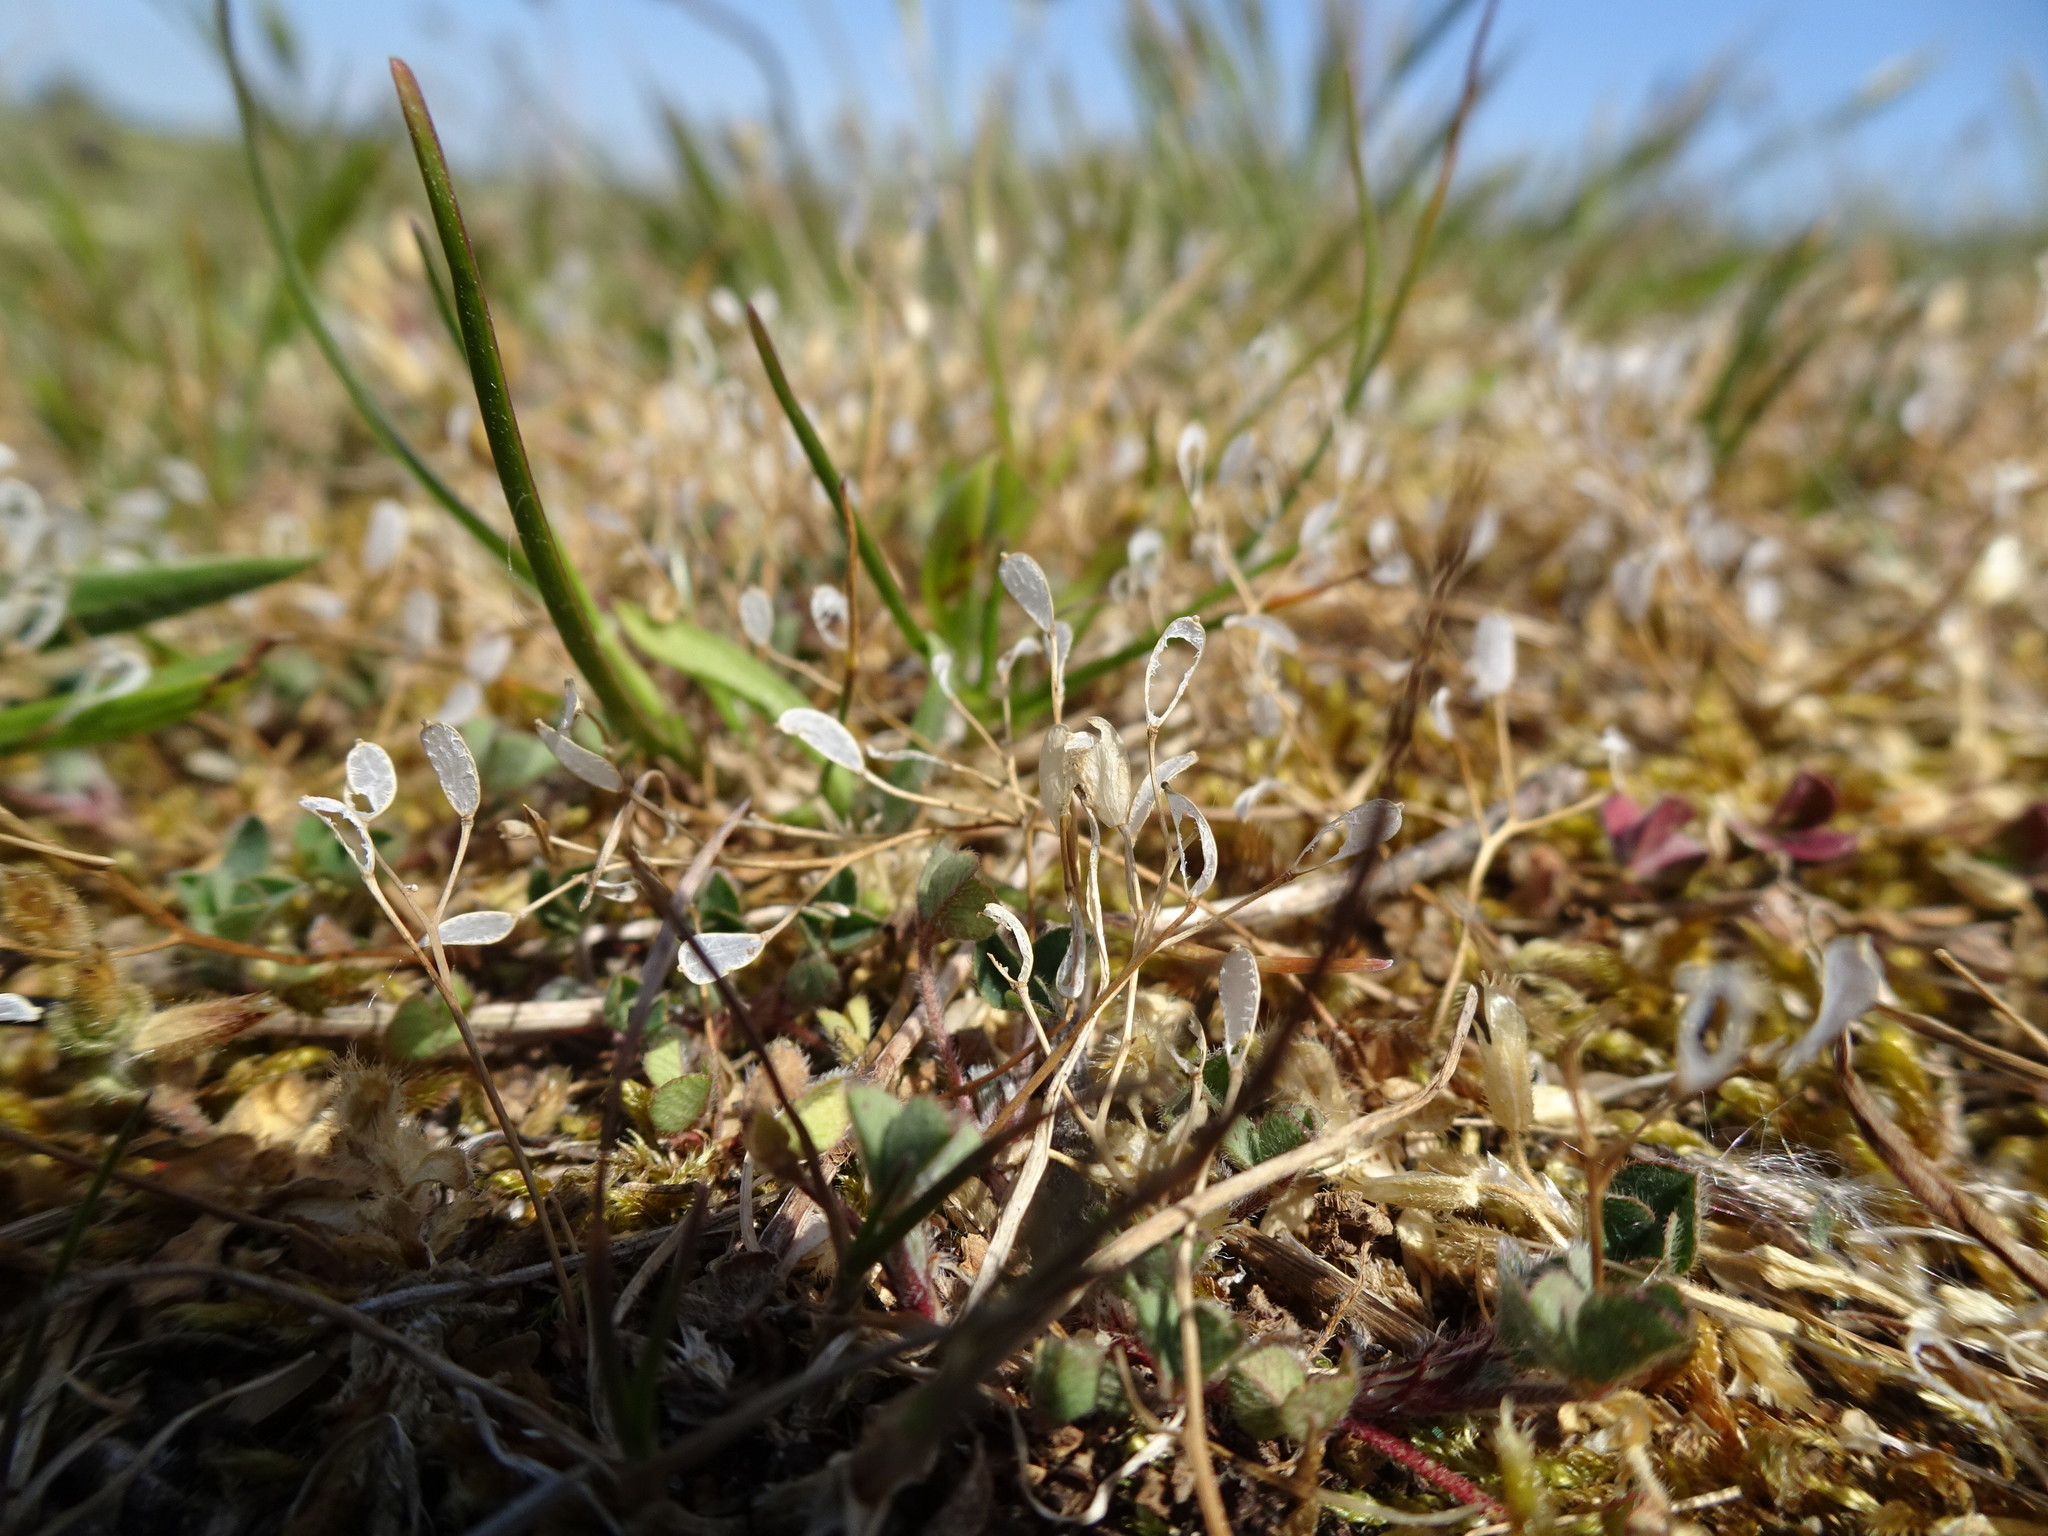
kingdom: Plantae
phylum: Tracheophyta
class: Magnoliopsida
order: Brassicales
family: Brassicaceae
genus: Draba
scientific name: Draba verna
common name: Spring draba
